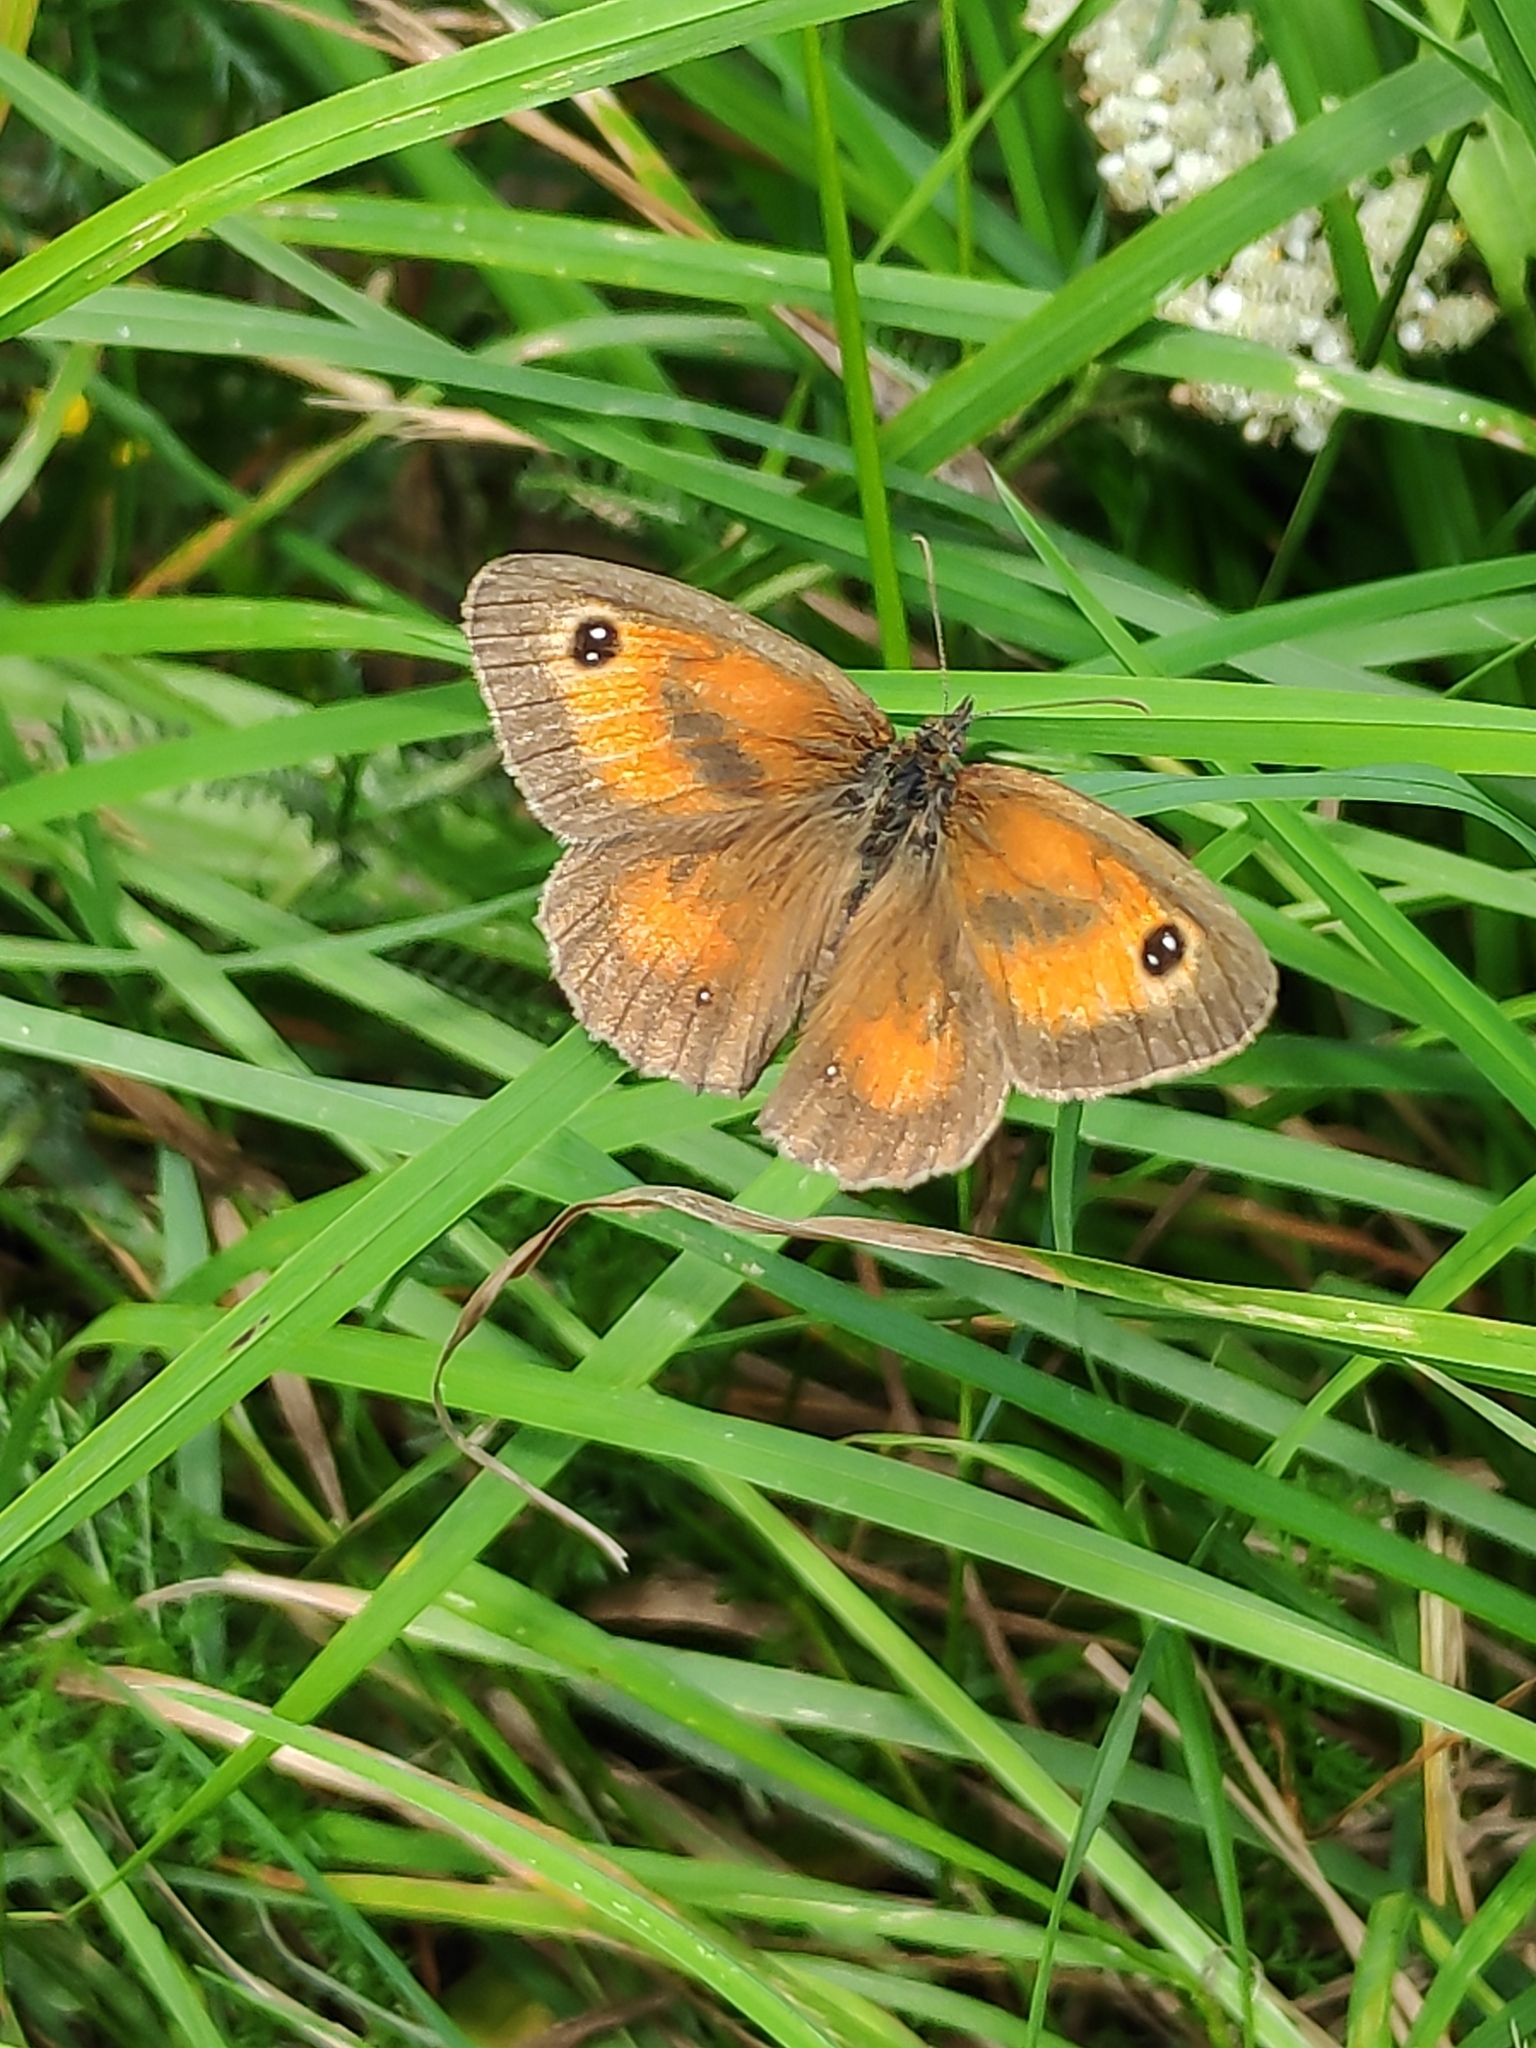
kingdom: Animalia
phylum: Arthropoda
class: Insecta
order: Lepidoptera
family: Nymphalidae
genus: Pyronia
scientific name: Pyronia tithonus
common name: Gatekeeper
